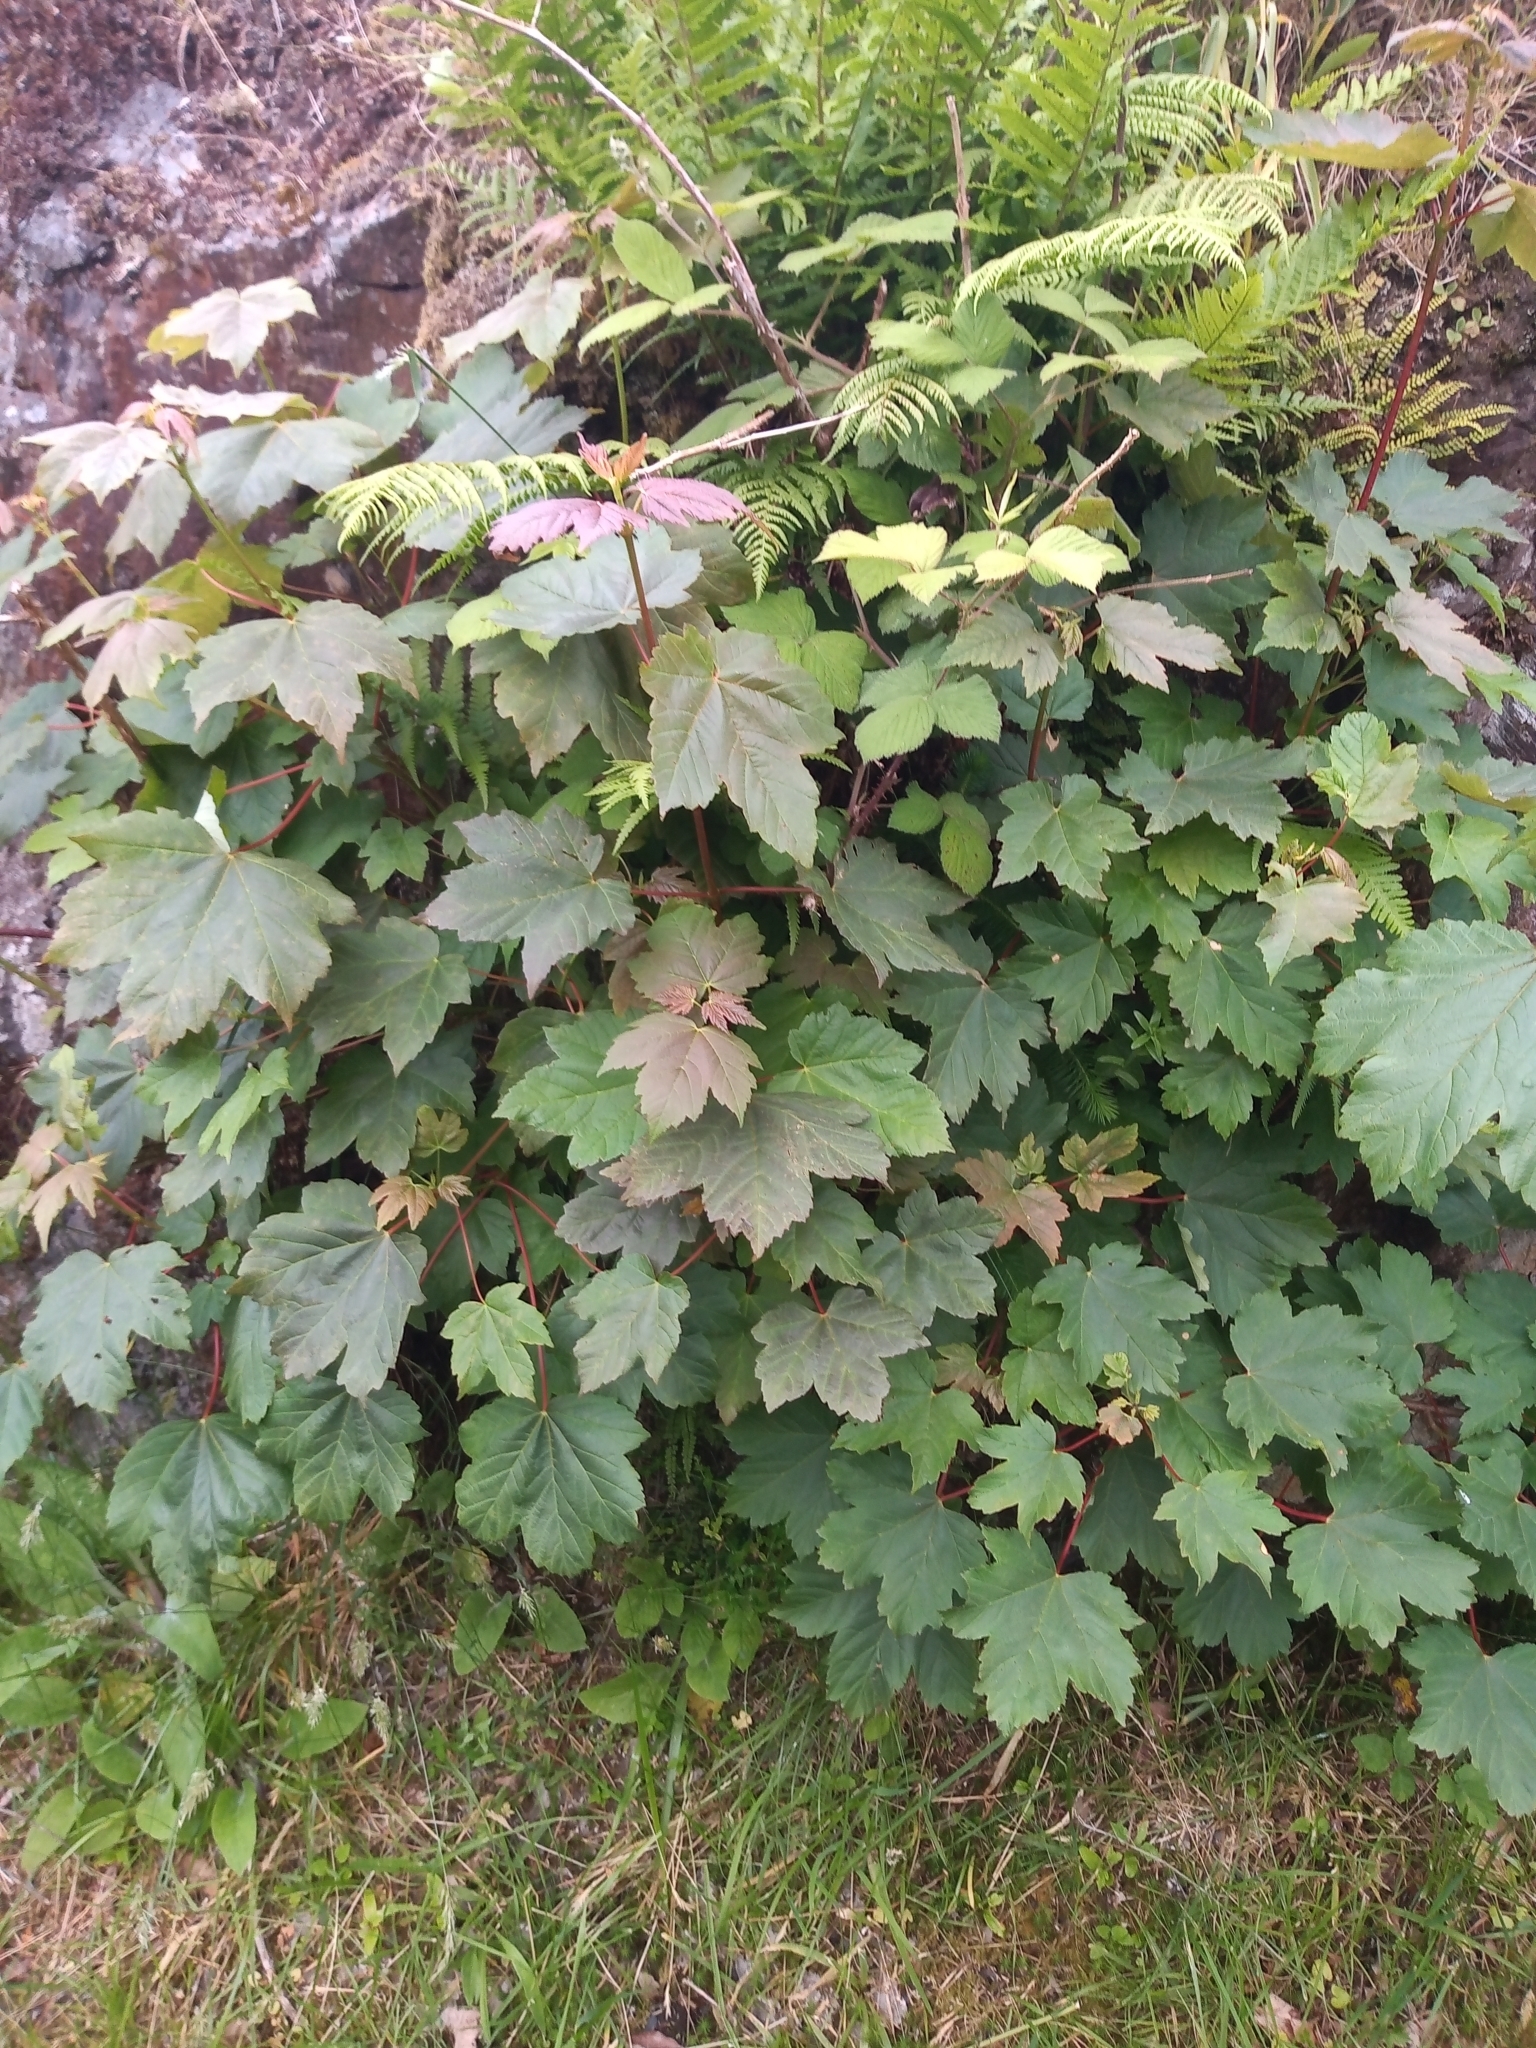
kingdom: Plantae
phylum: Tracheophyta
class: Magnoliopsida
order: Sapindales
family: Sapindaceae
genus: Acer
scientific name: Acer pseudoplatanus
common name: Sycamore
